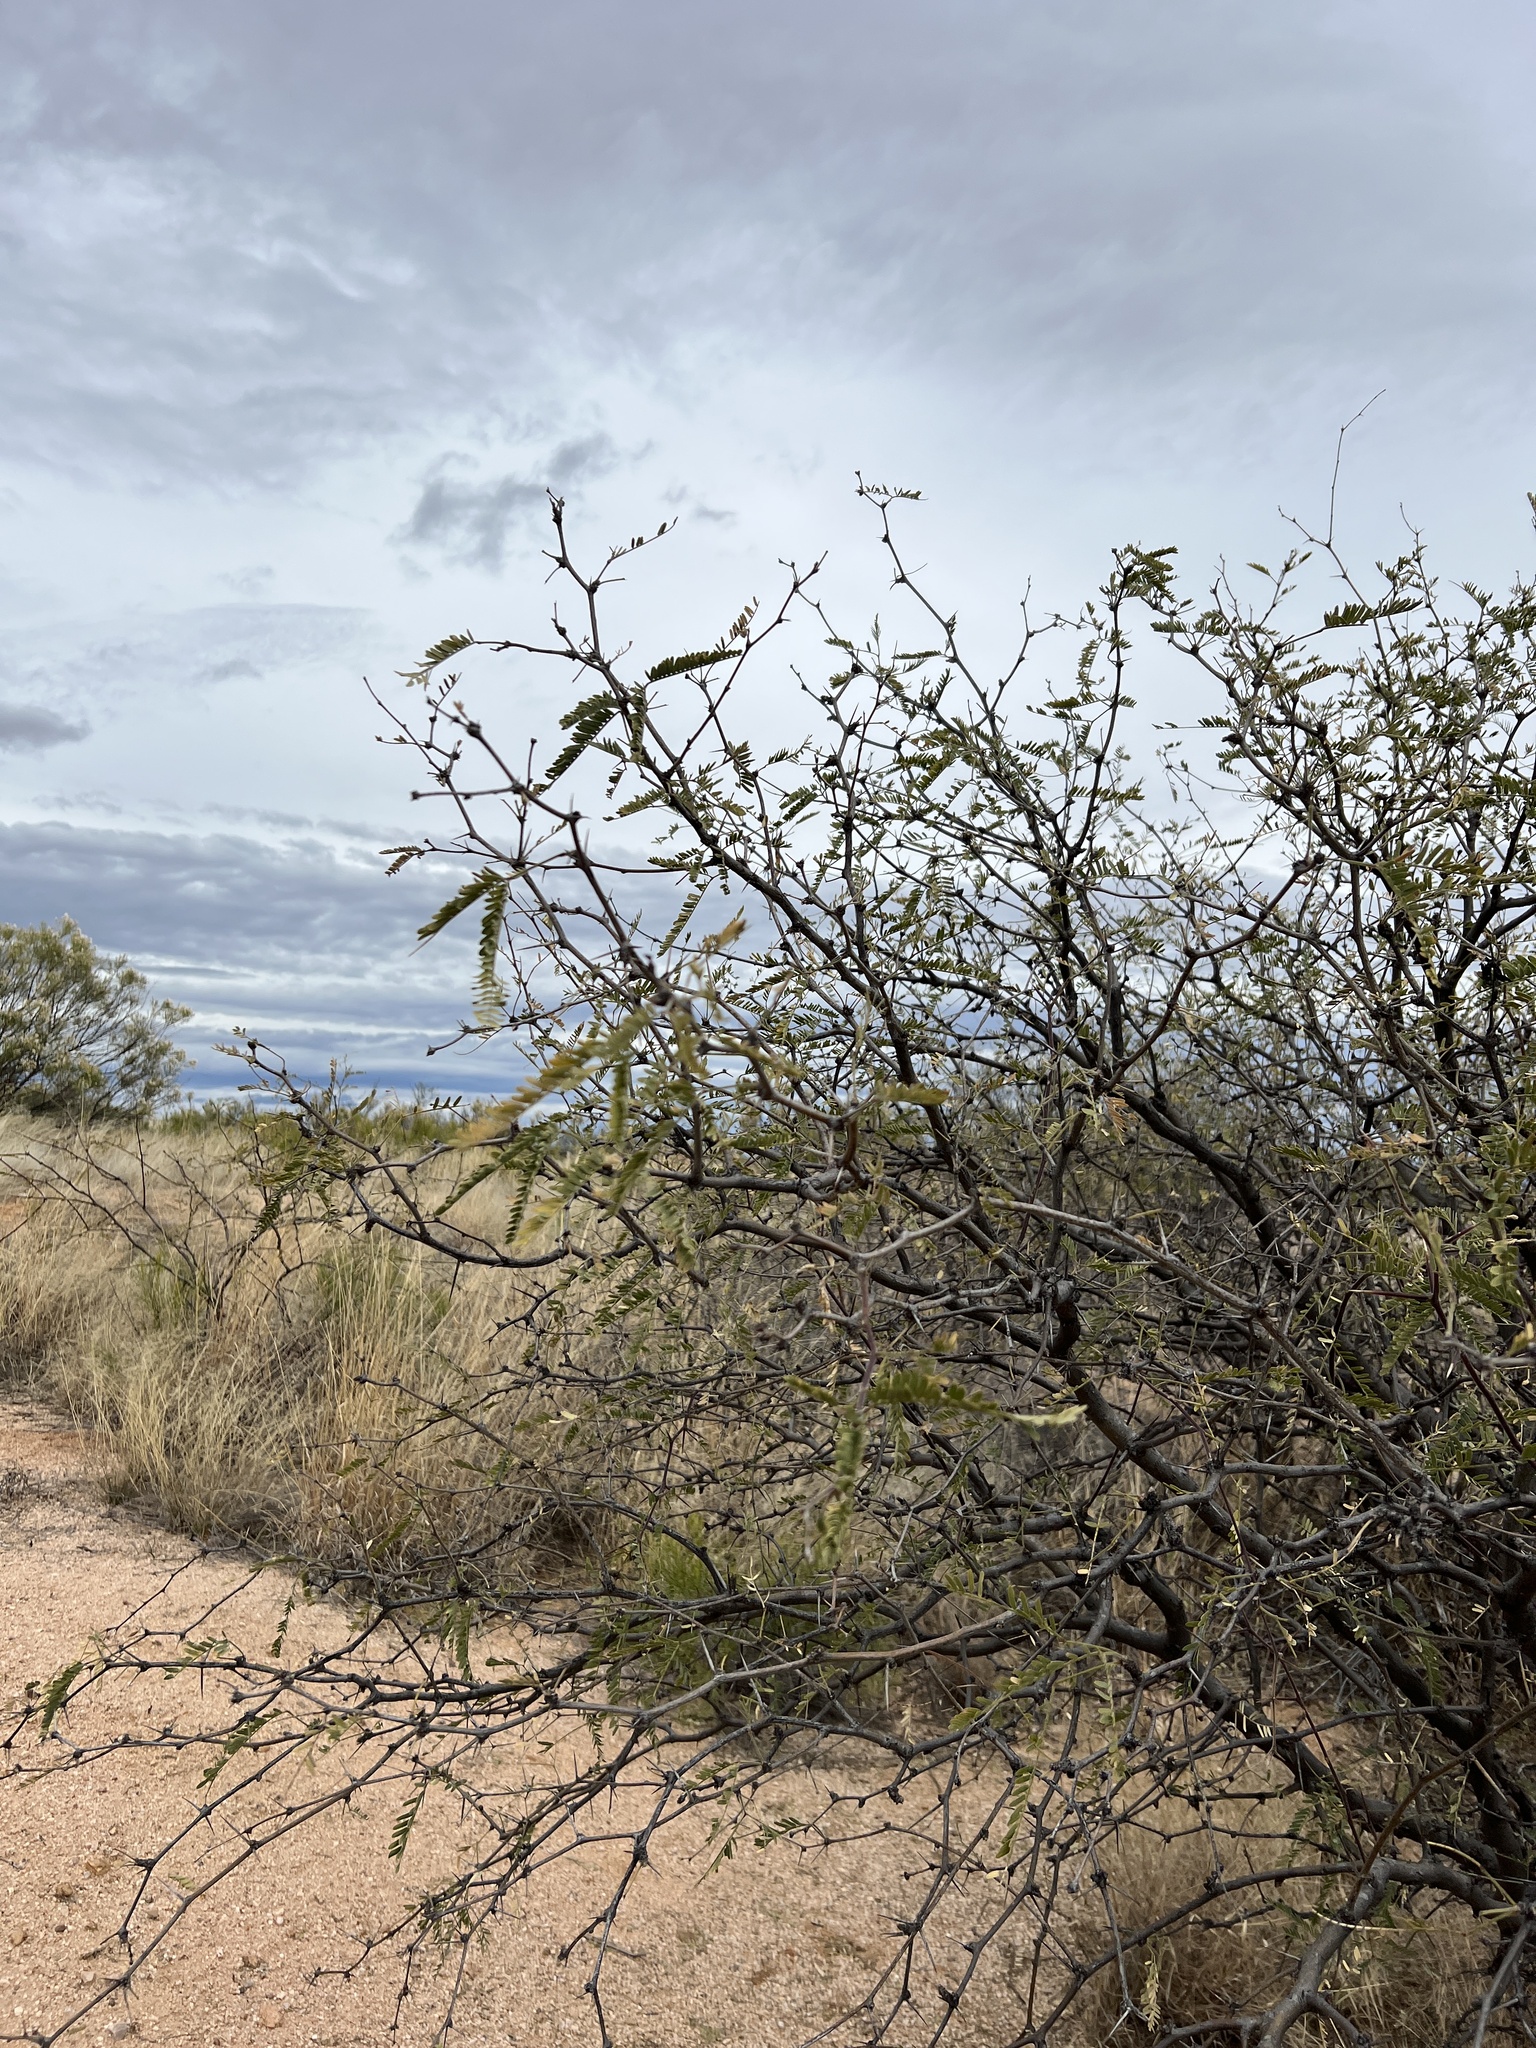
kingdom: Plantae
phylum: Tracheophyta
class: Magnoliopsida
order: Fabales
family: Fabaceae
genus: Prosopis
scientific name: Prosopis velutina
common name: Velvet mesquite
